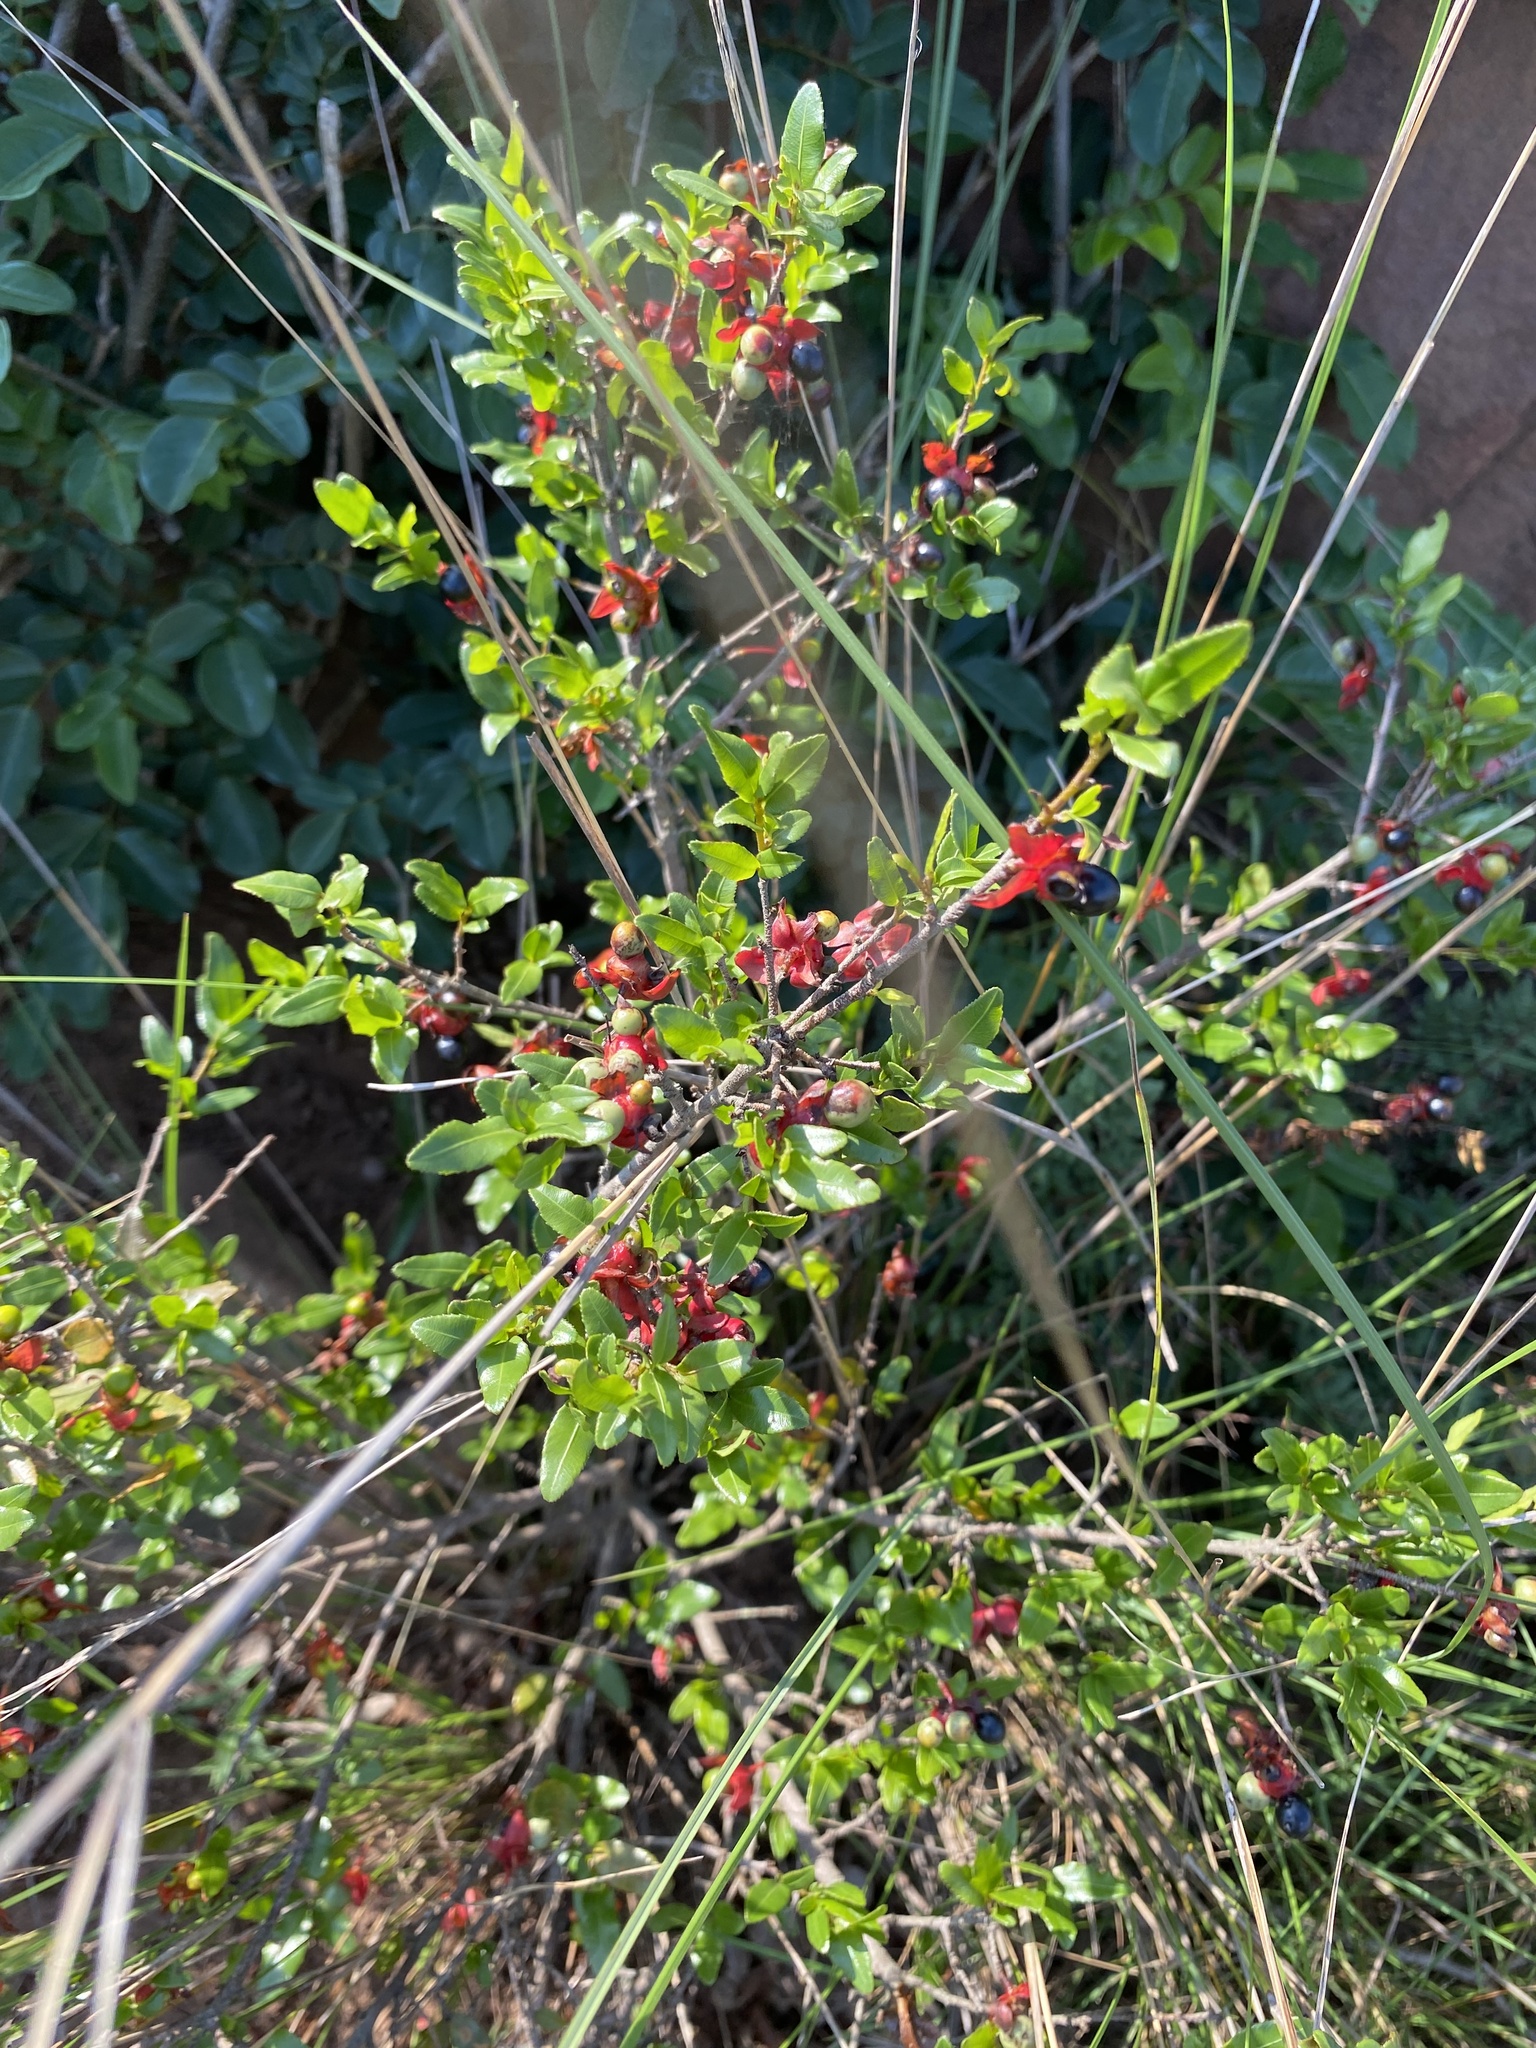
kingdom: Plantae
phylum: Tracheophyta
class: Magnoliopsida
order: Malpighiales
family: Ochnaceae
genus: Ochna
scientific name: Ochna serrulata
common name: Mickey mouse plant
